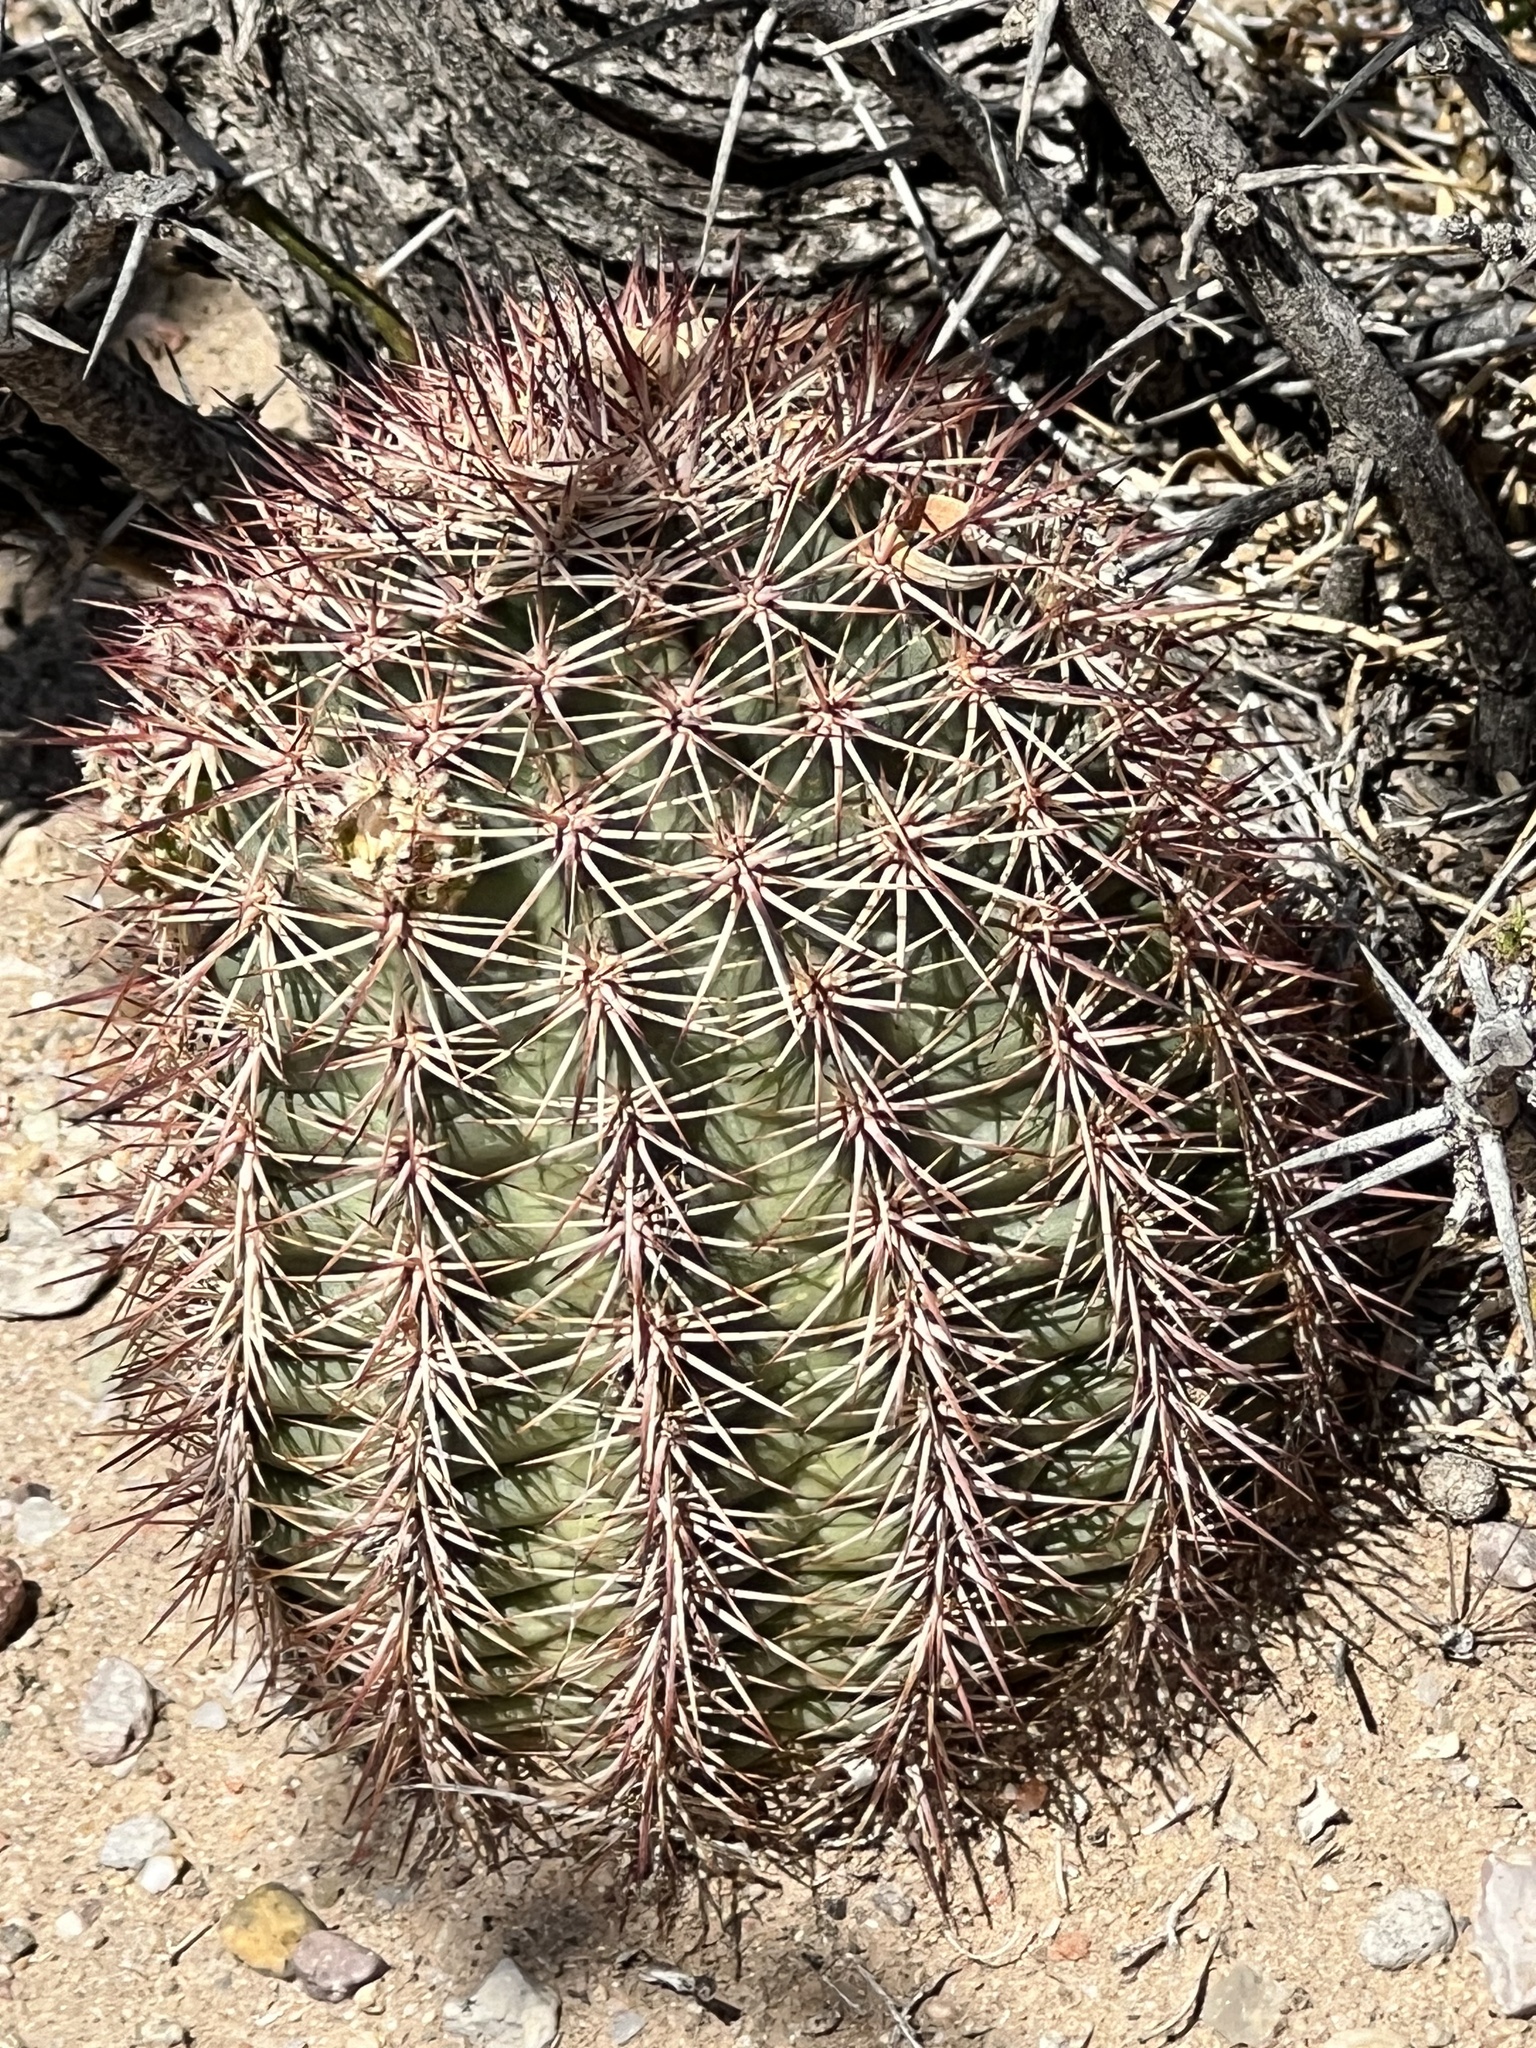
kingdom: Plantae
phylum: Tracheophyta
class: Magnoliopsida
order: Caryophyllales
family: Cactaceae
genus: Echinocereus
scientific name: Echinocereus roetteri
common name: Lloyd's hedgehog cactus
